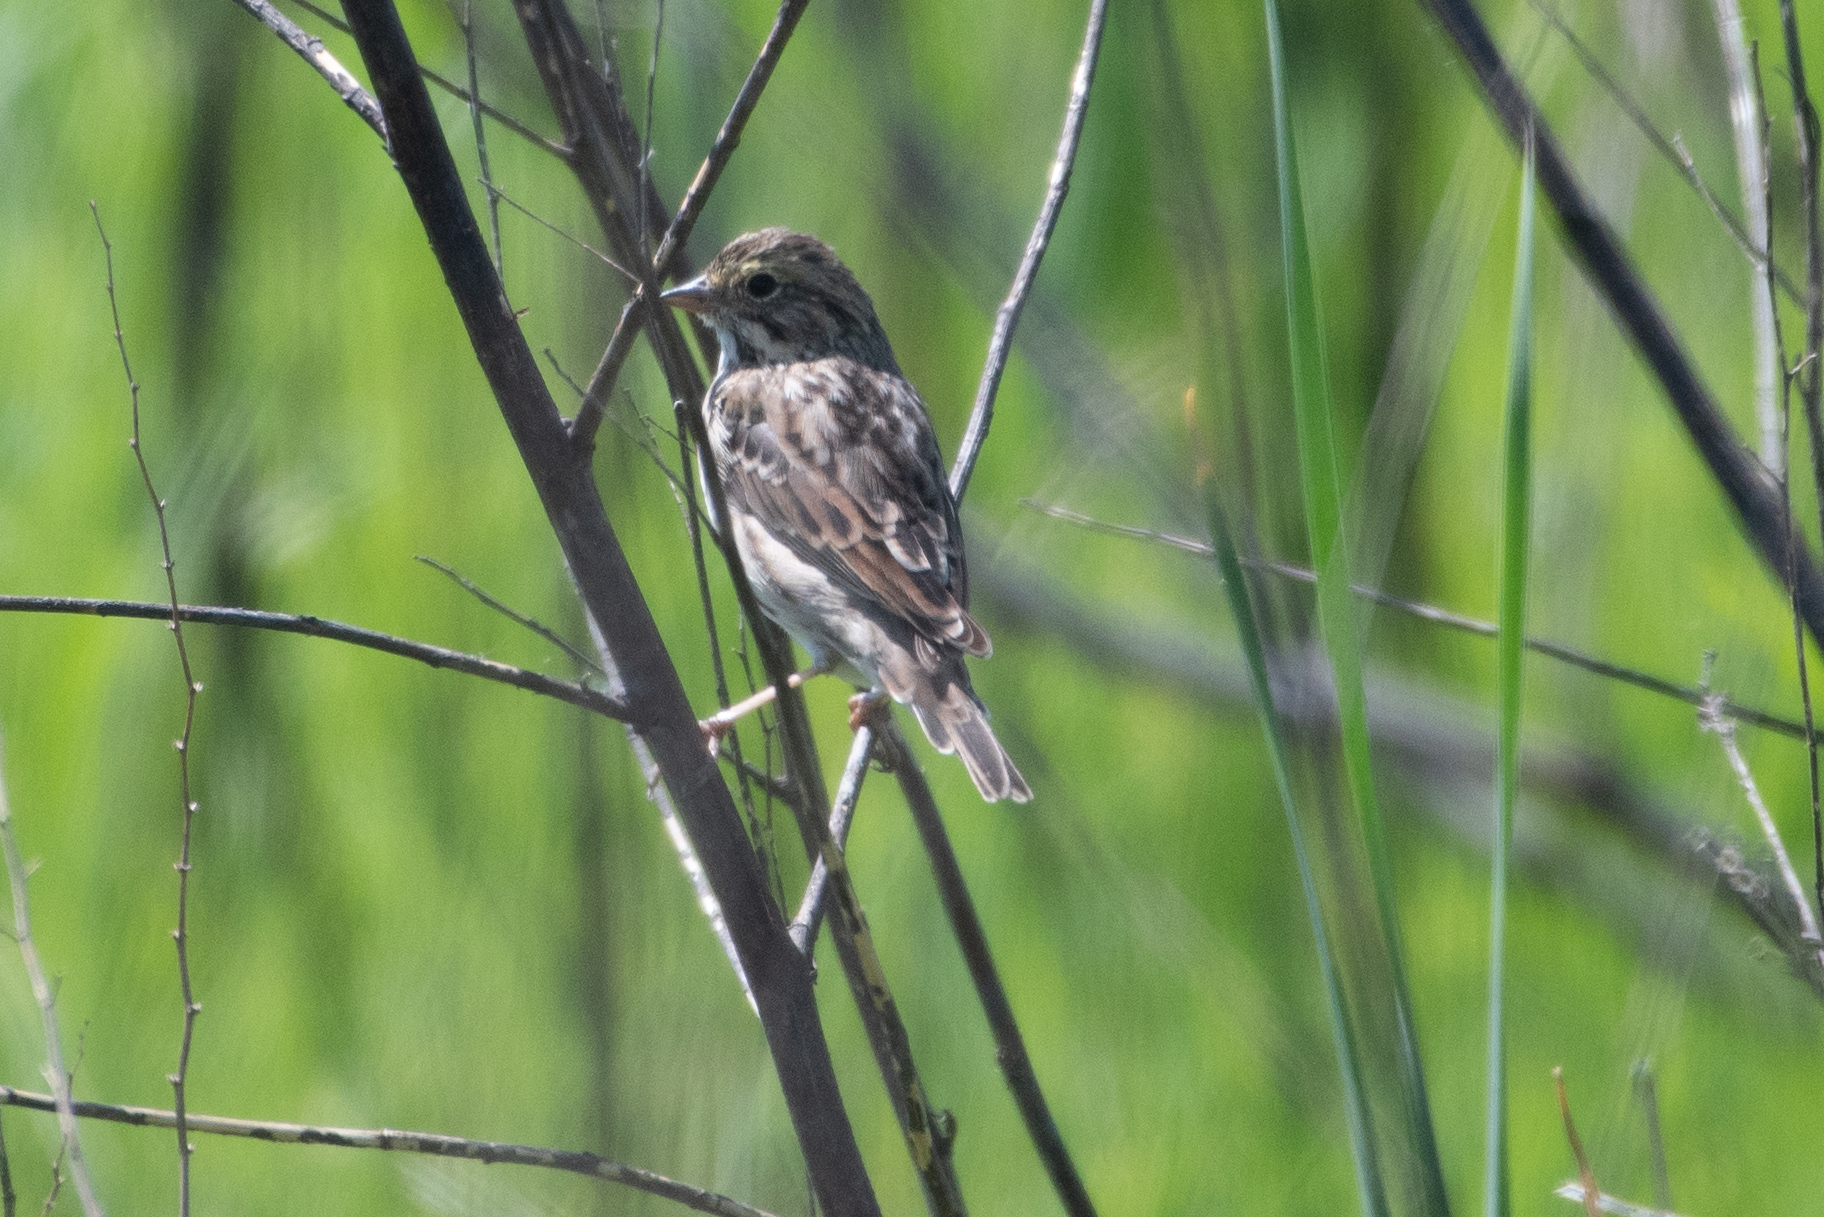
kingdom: Animalia
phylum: Chordata
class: Aves
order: Passeriformes
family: Passerellidae
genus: Passerculus
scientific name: Passerculus sandwichensis
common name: Savannah sparrow
